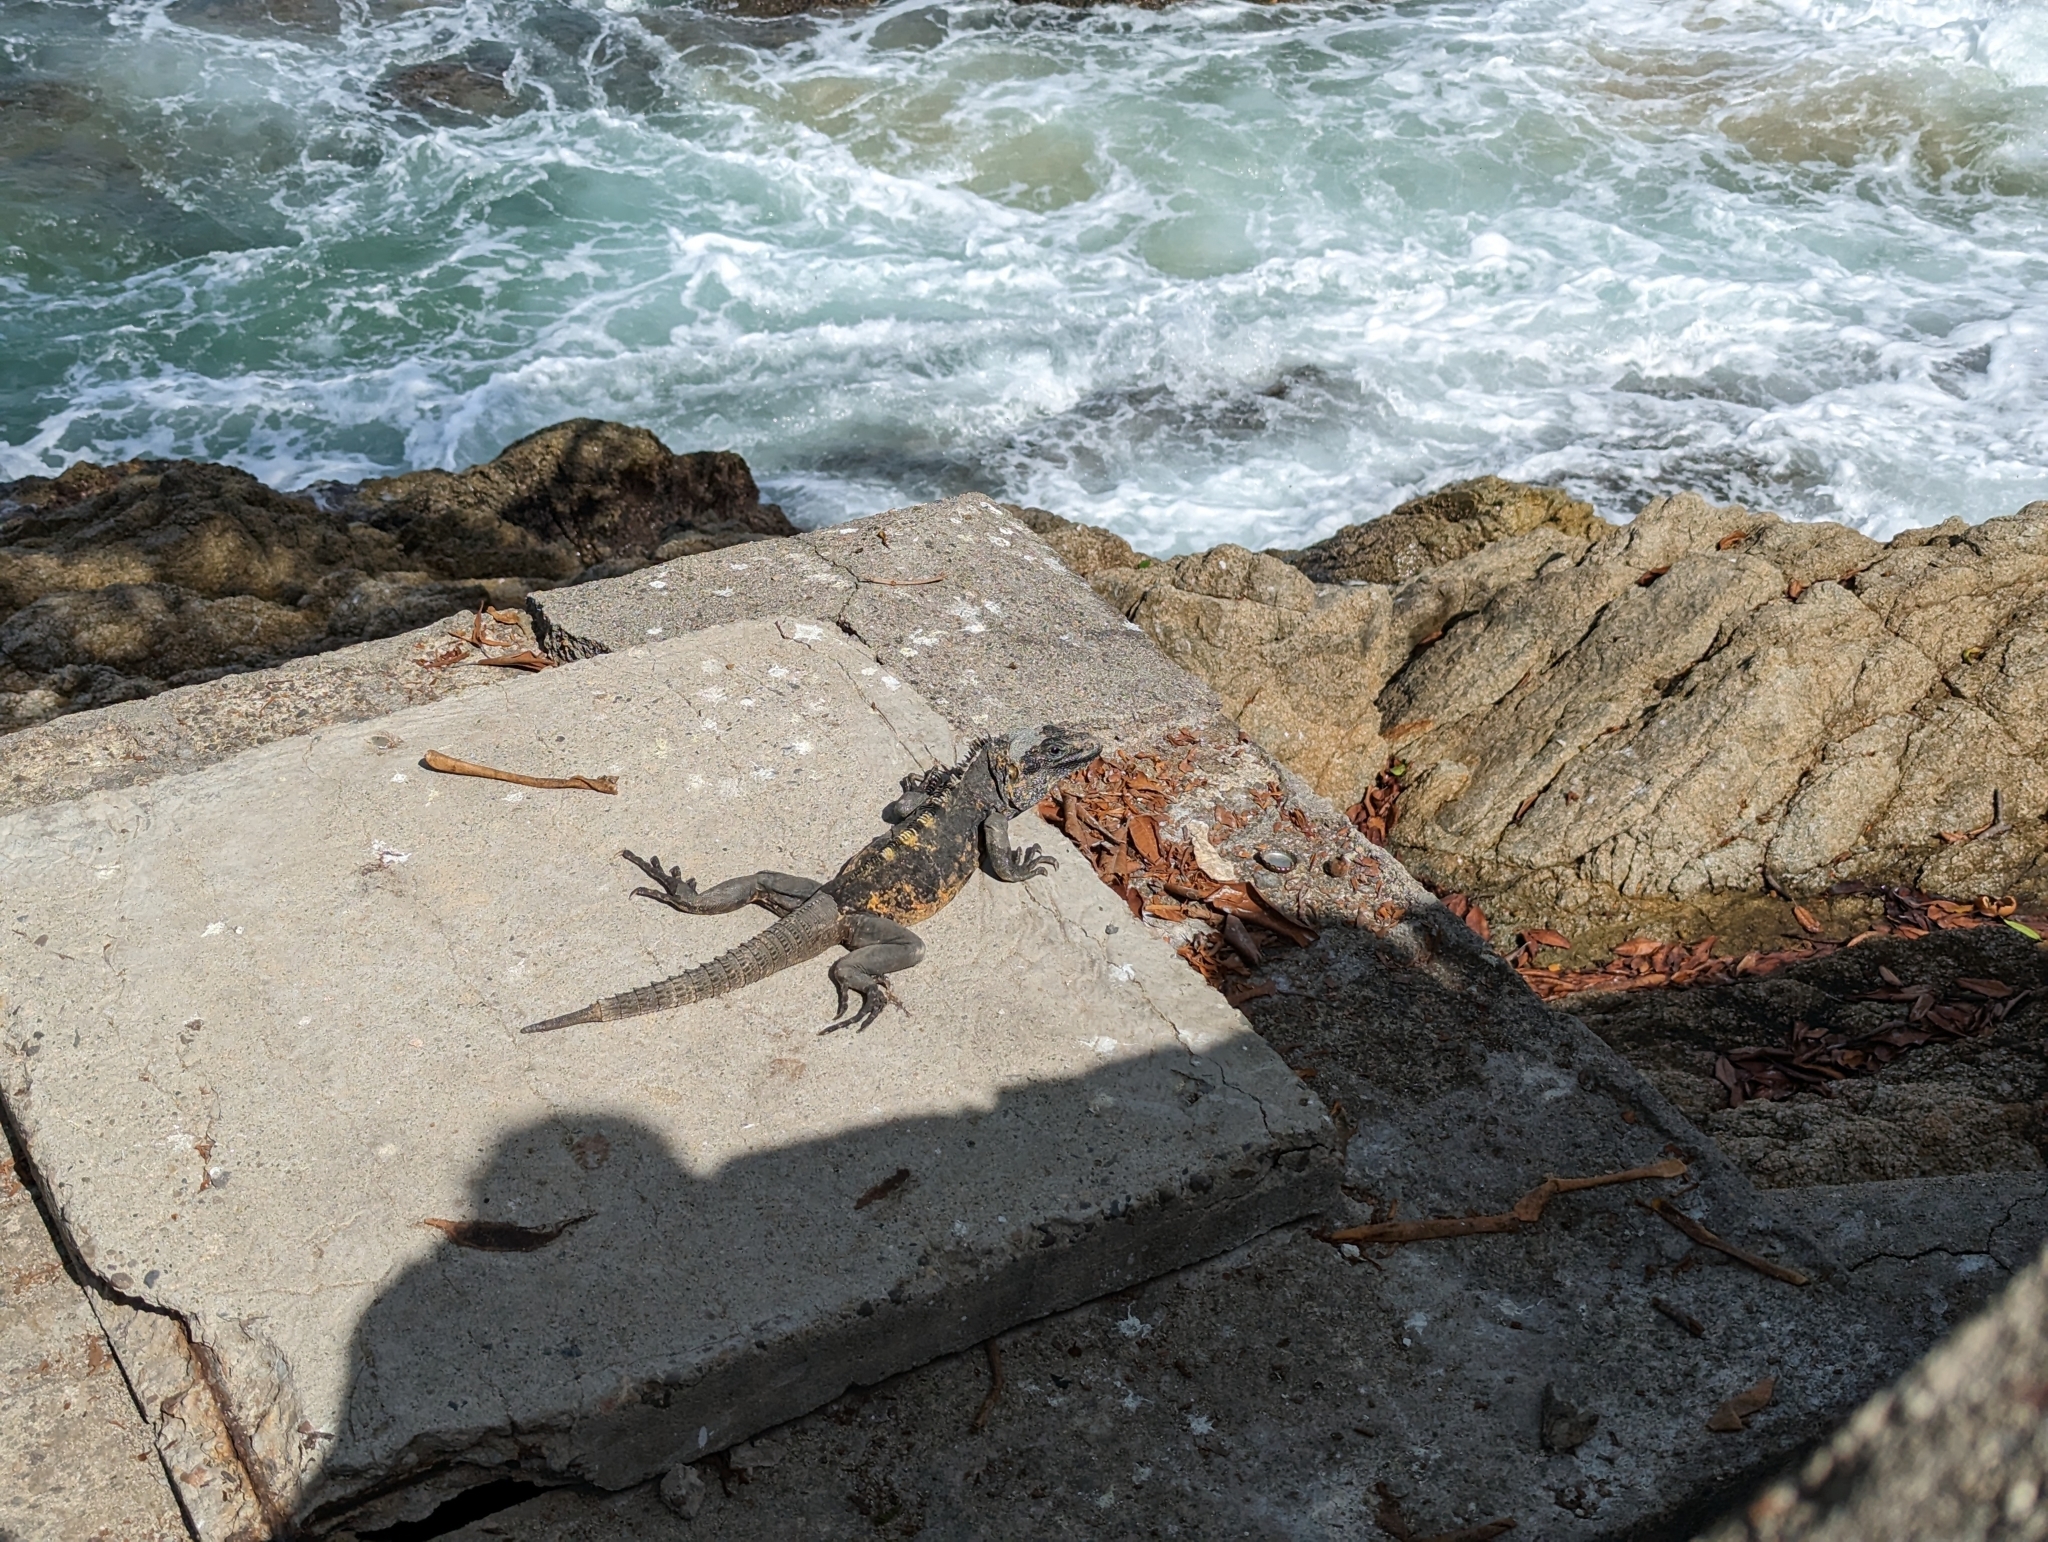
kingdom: Animalia
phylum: Chordata
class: Squamata
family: Iguanidae
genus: Ctenosaura
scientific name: Ctenosaura pectinata
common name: Guerreran spiny-tailed iguana
